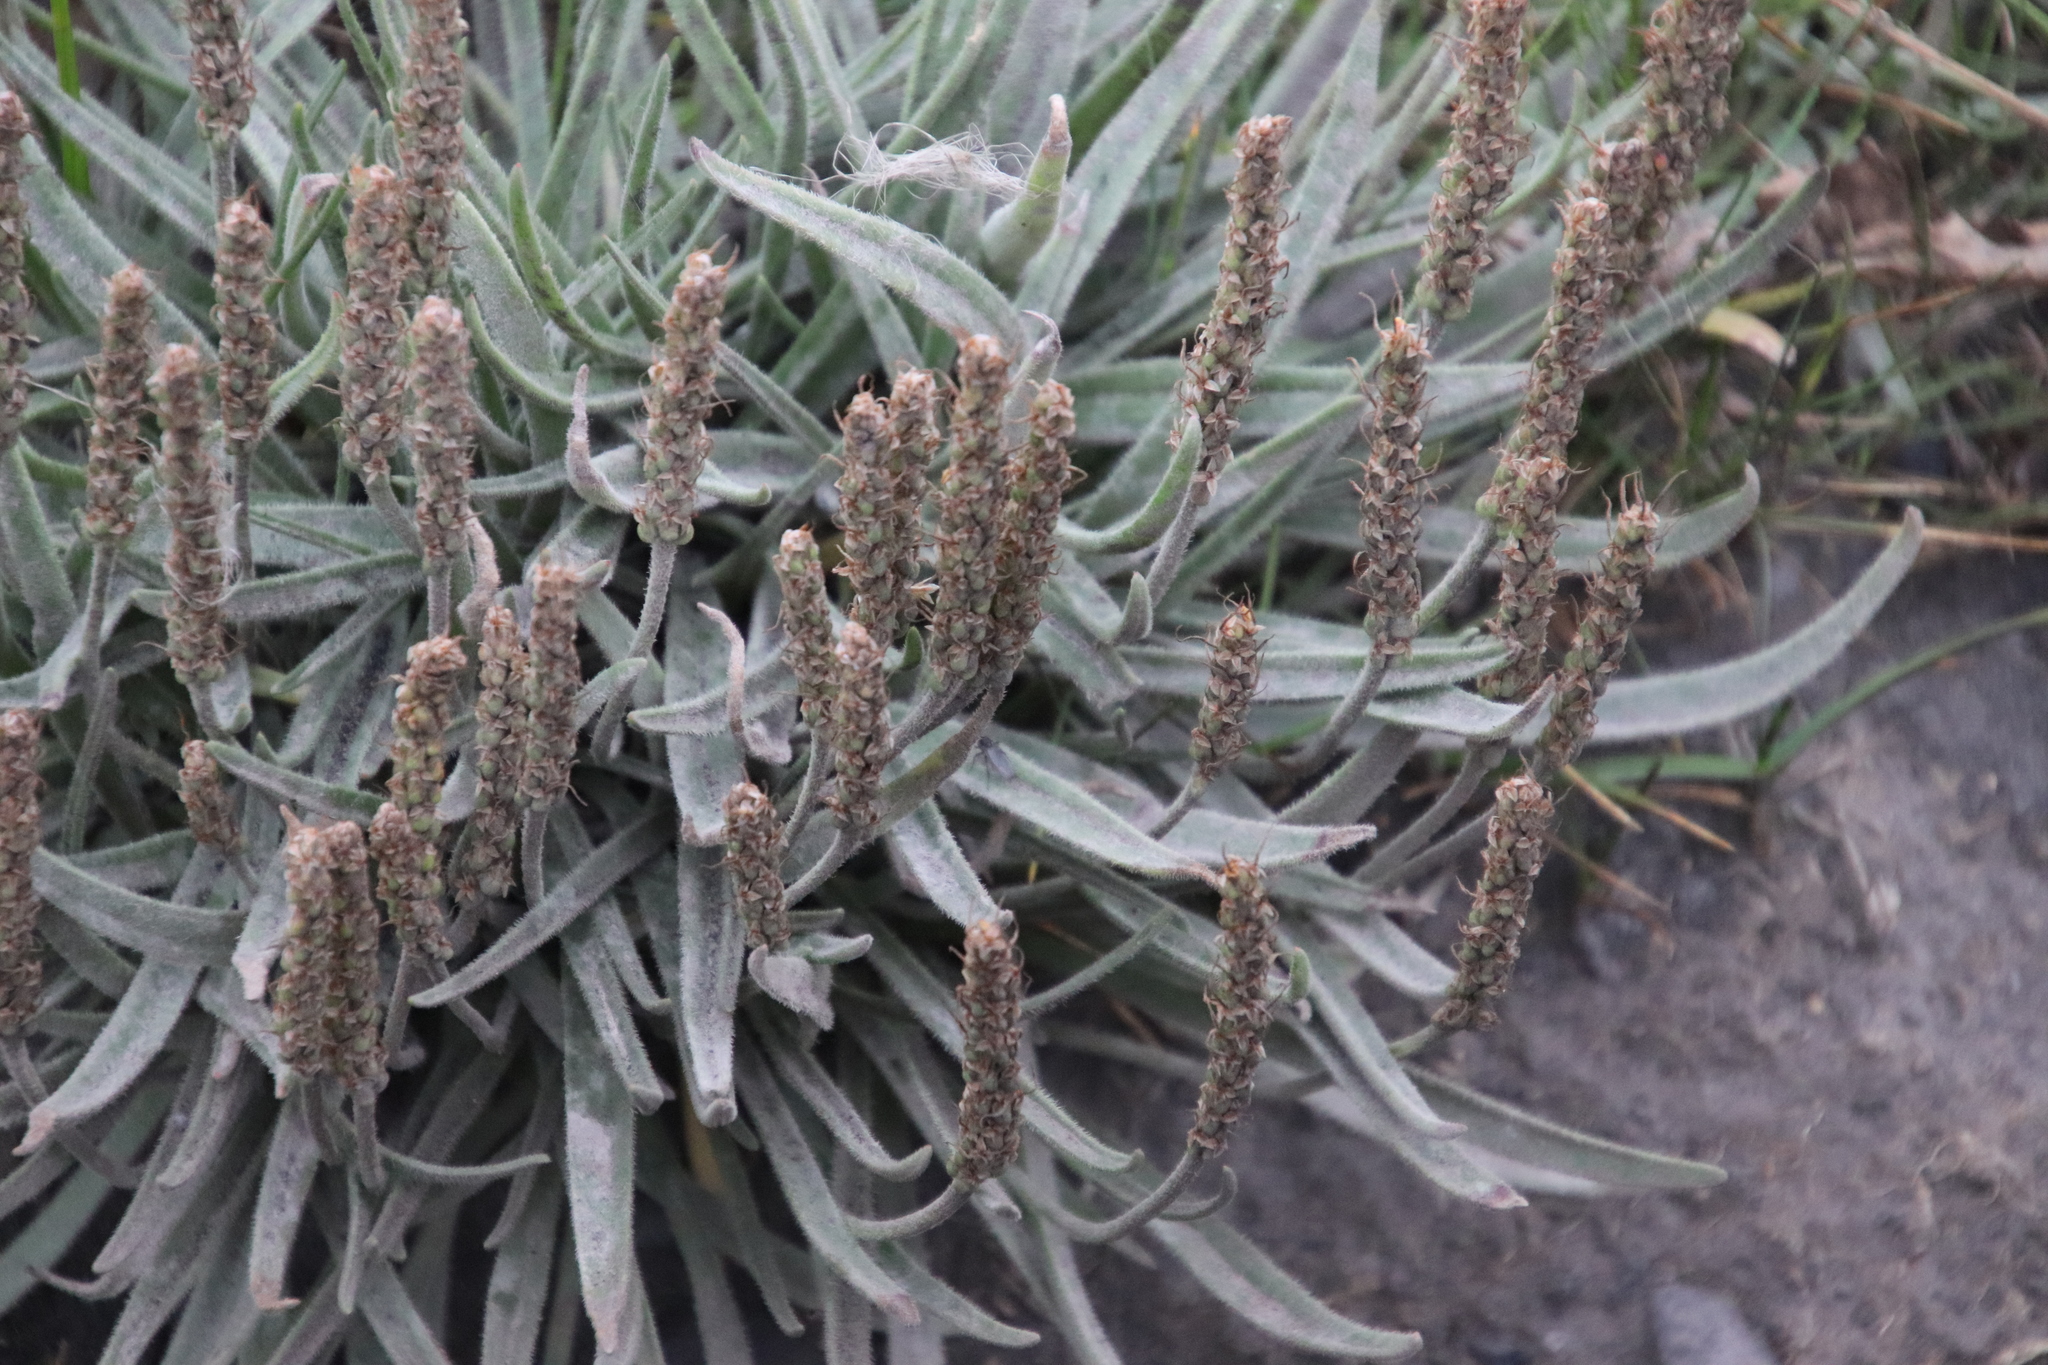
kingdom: Plantae
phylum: Tracheophyta
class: Magnoliopsida
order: Lamiales
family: Plantaginaceae
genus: Plantago
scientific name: Plantago maritima
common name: Sea plantain
